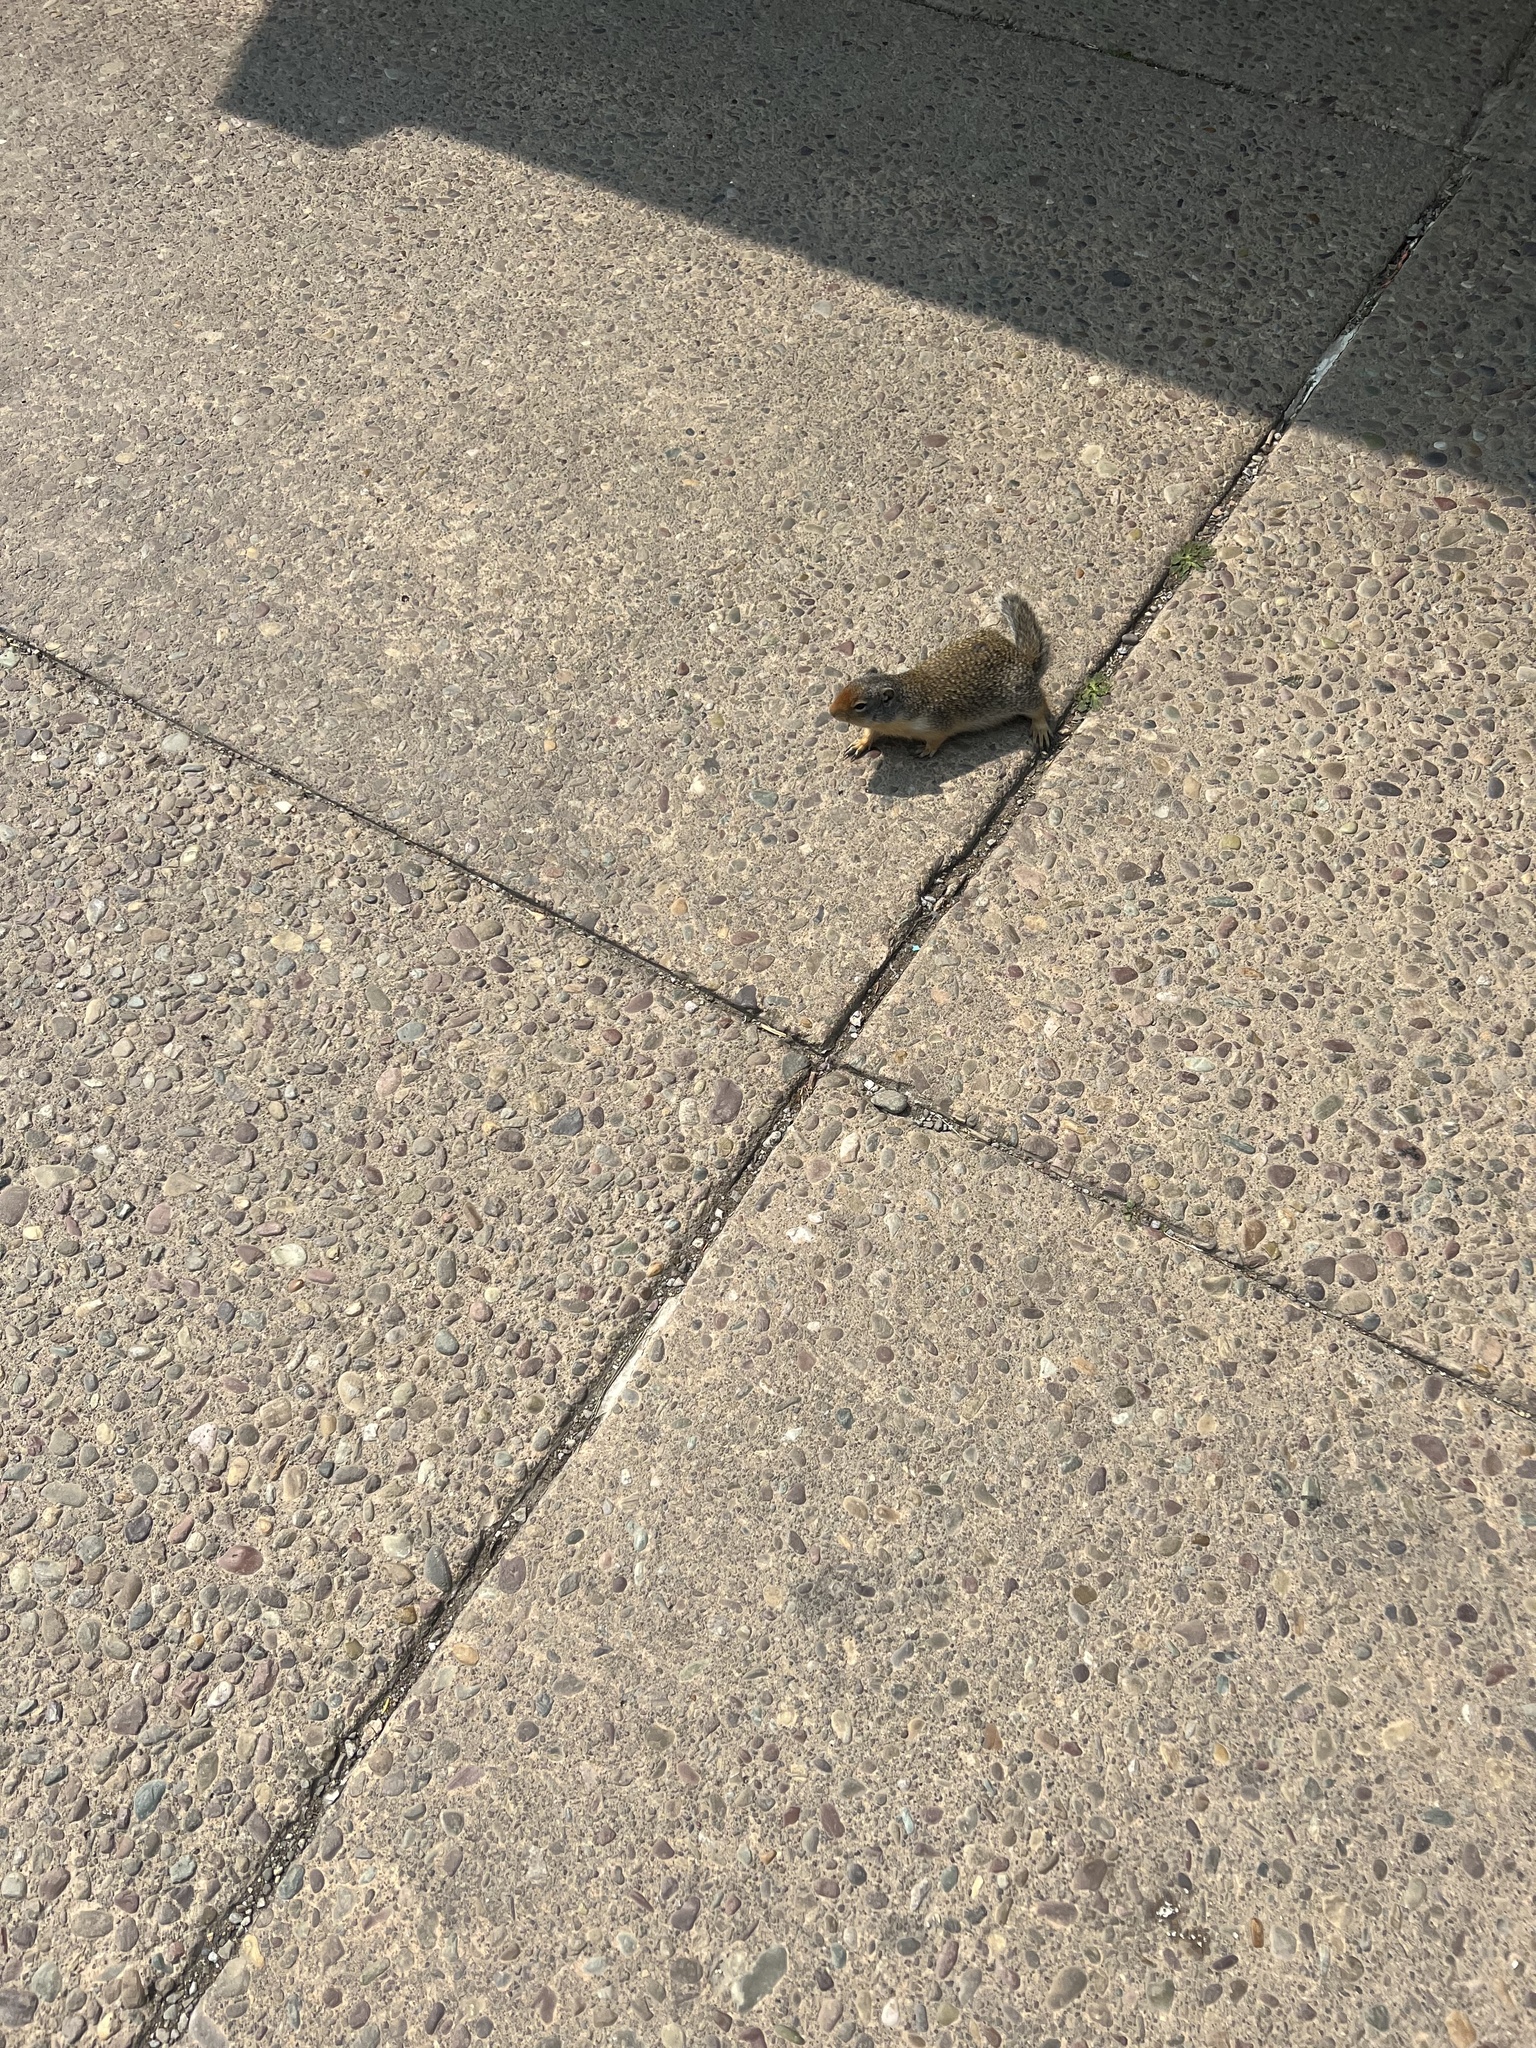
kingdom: Animalia
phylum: Chordata
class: Mammalia
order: Rodentia
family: Sciuridae
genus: Urocitellus
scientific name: Urocitellus columbianus
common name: Columbian ground squirrel
